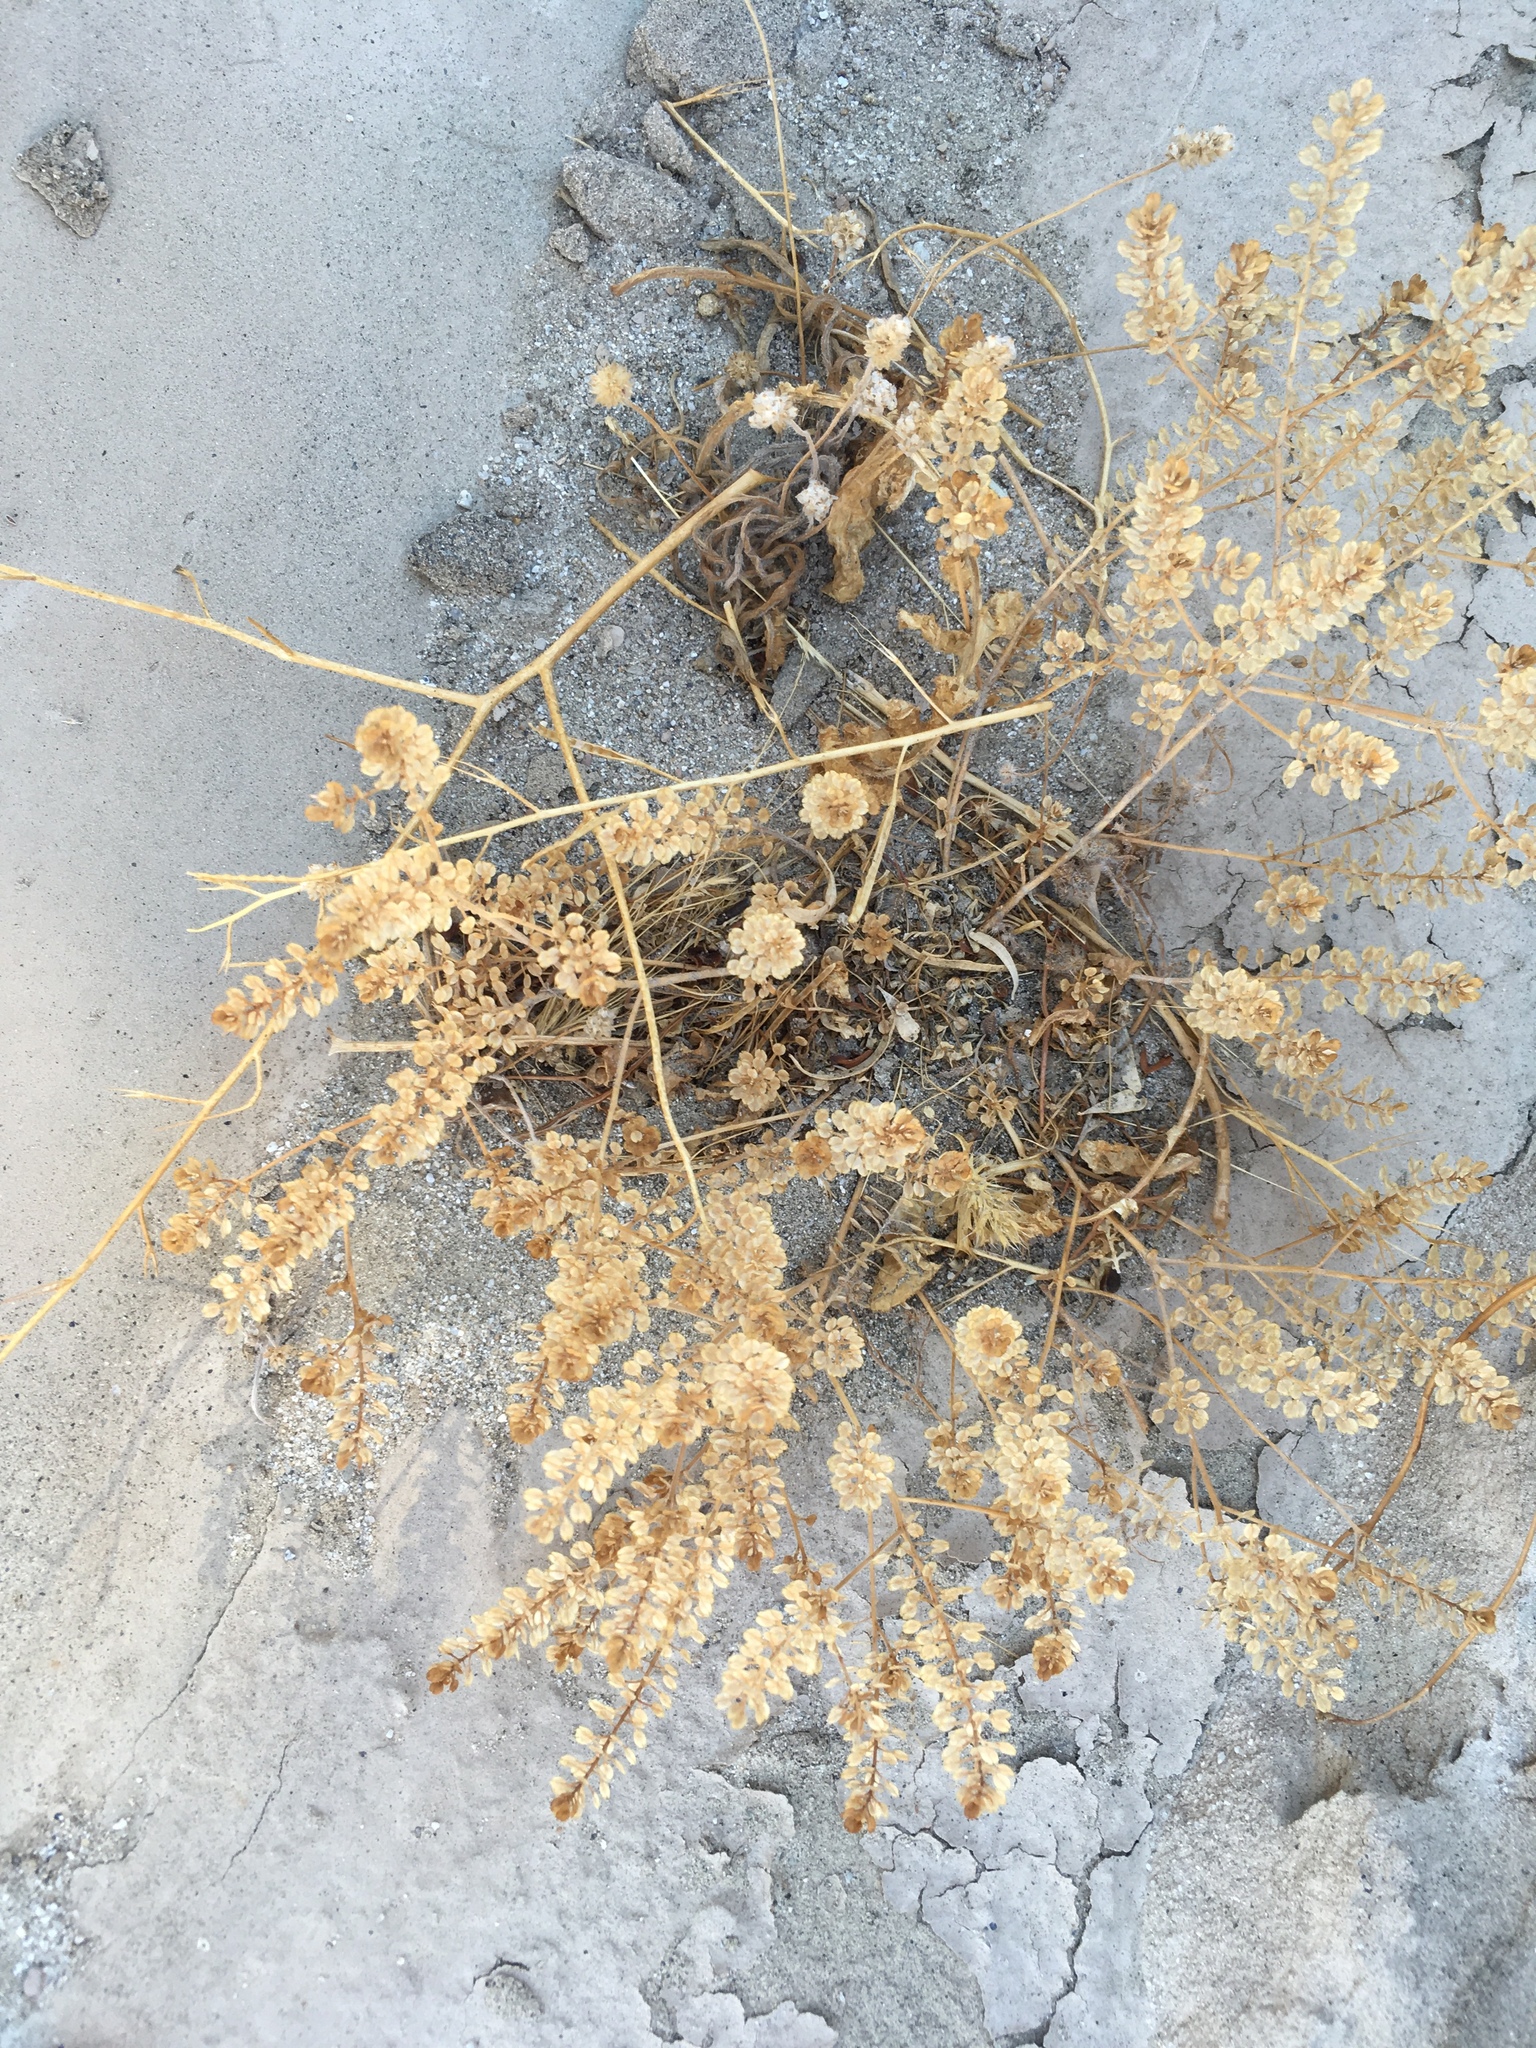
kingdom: Plantae
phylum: Tracheophyta
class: Magnoliopsida
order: Brassicales
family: Brassicaceae
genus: Lepidium
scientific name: Lepidium lasiocarpum
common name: Hairy-pod pepperwort
